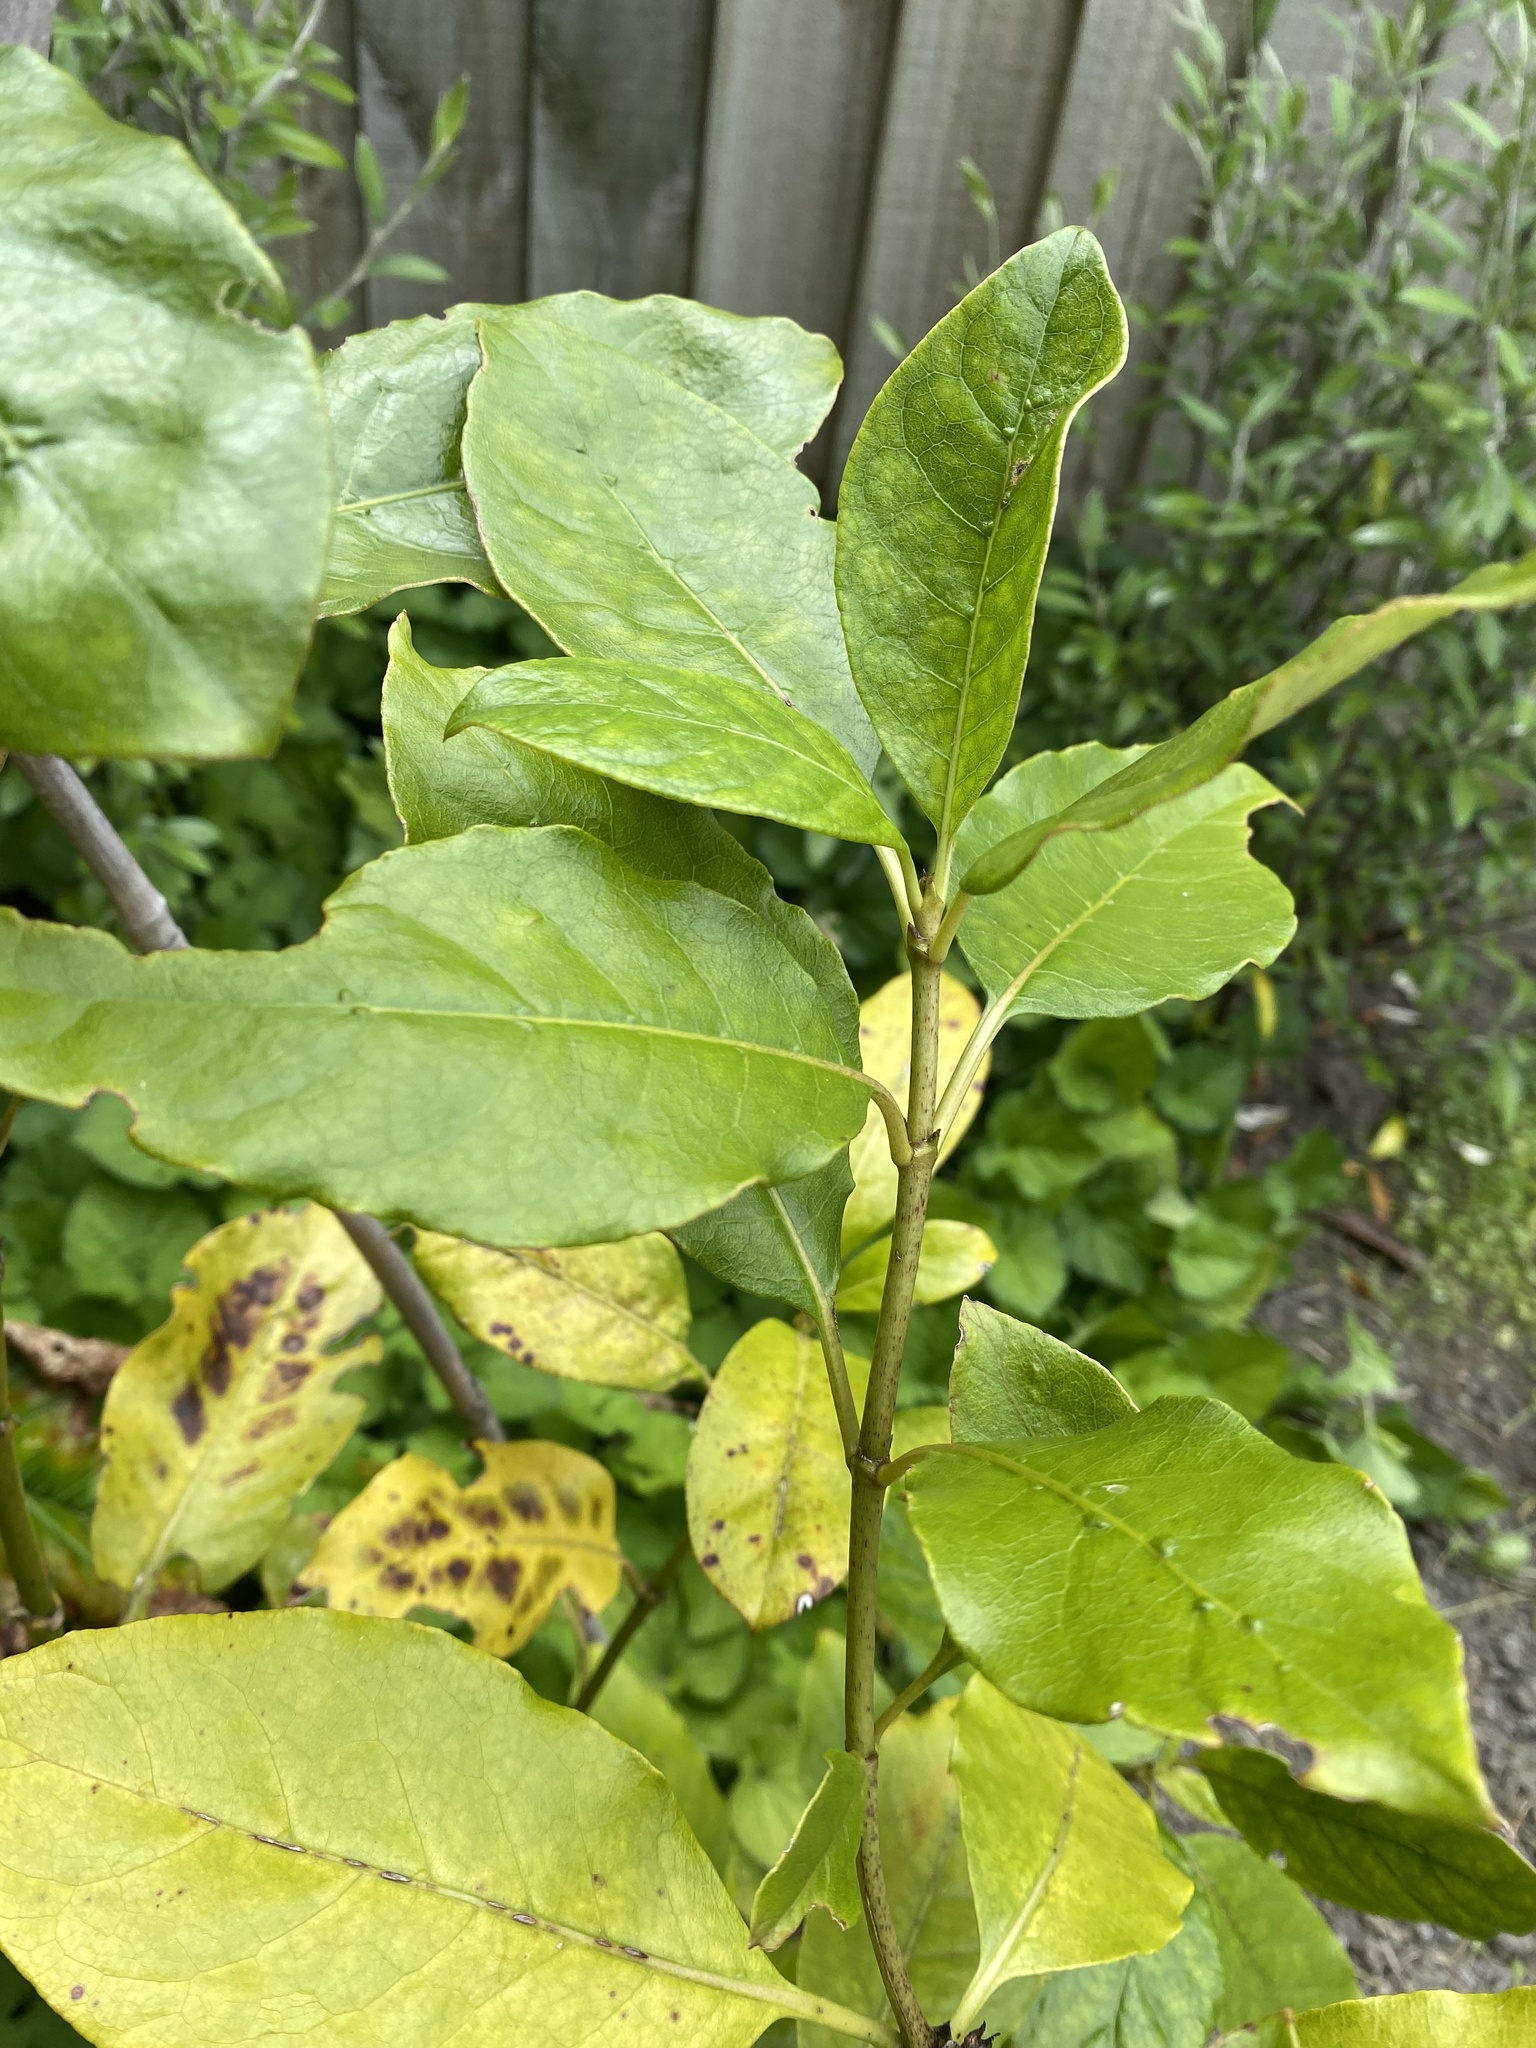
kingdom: Plantae
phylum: Tracheophyta
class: Magnoliopsida
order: Gentianales
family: Rubiaceae
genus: Coprosma
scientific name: Coprosma autumnalis
